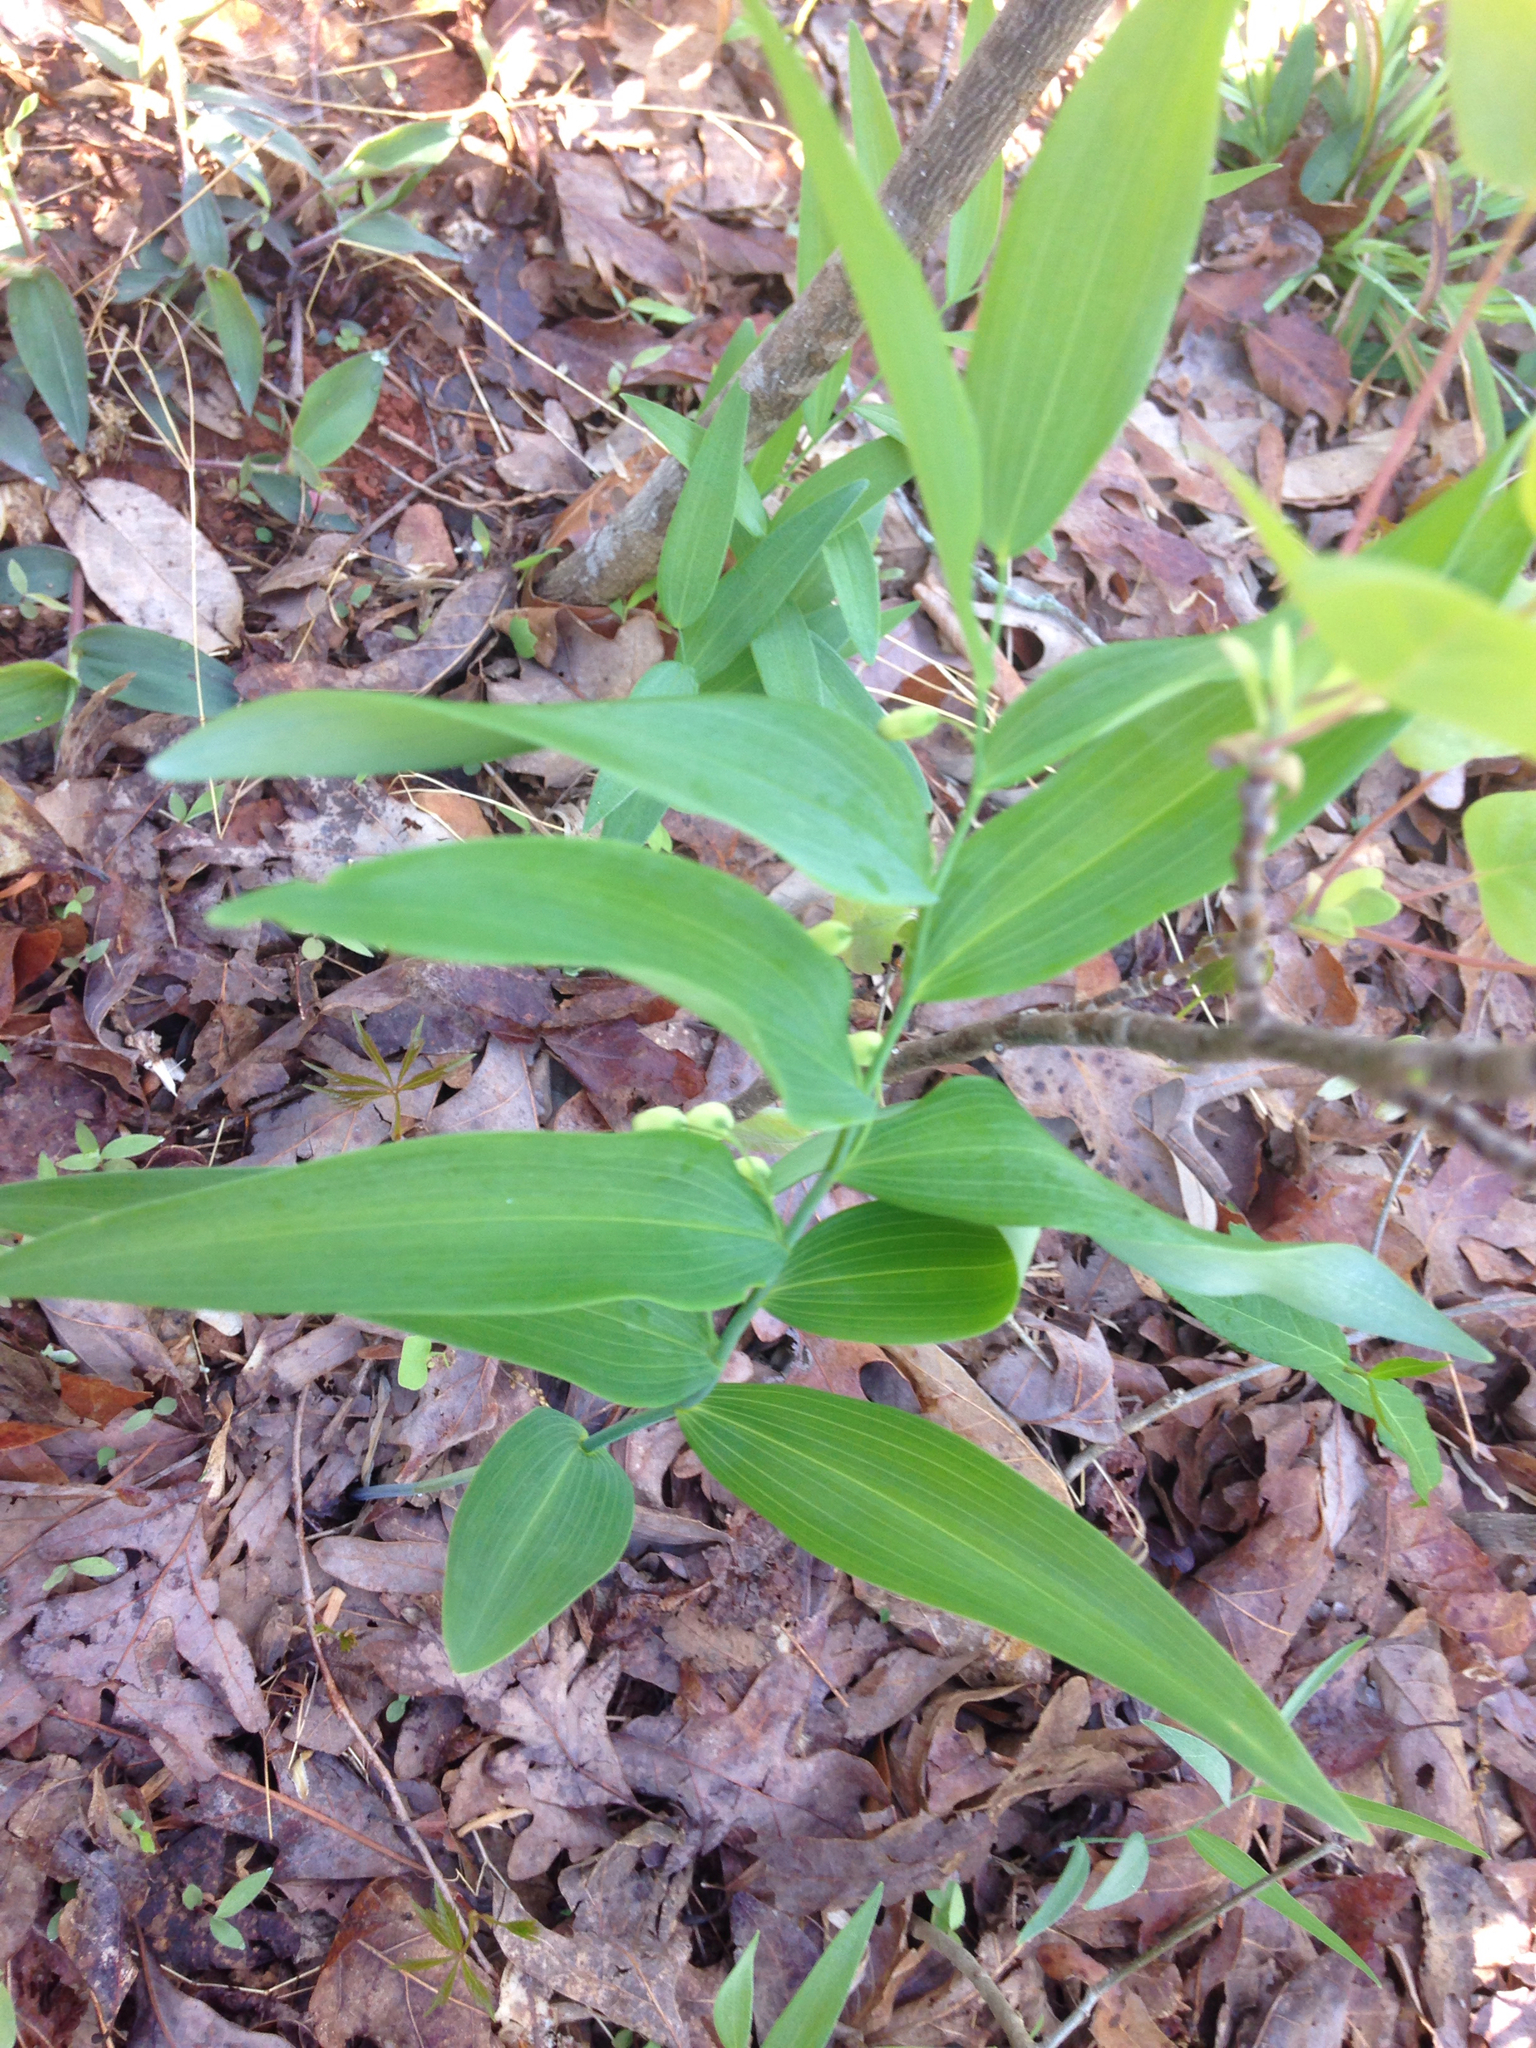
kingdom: Plantae
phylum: Tracheophyta
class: Liliopsida
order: Asparagales
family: Asparagaceae
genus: Polygonatum
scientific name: Polygonatum biflorum
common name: American solomon's-seal
